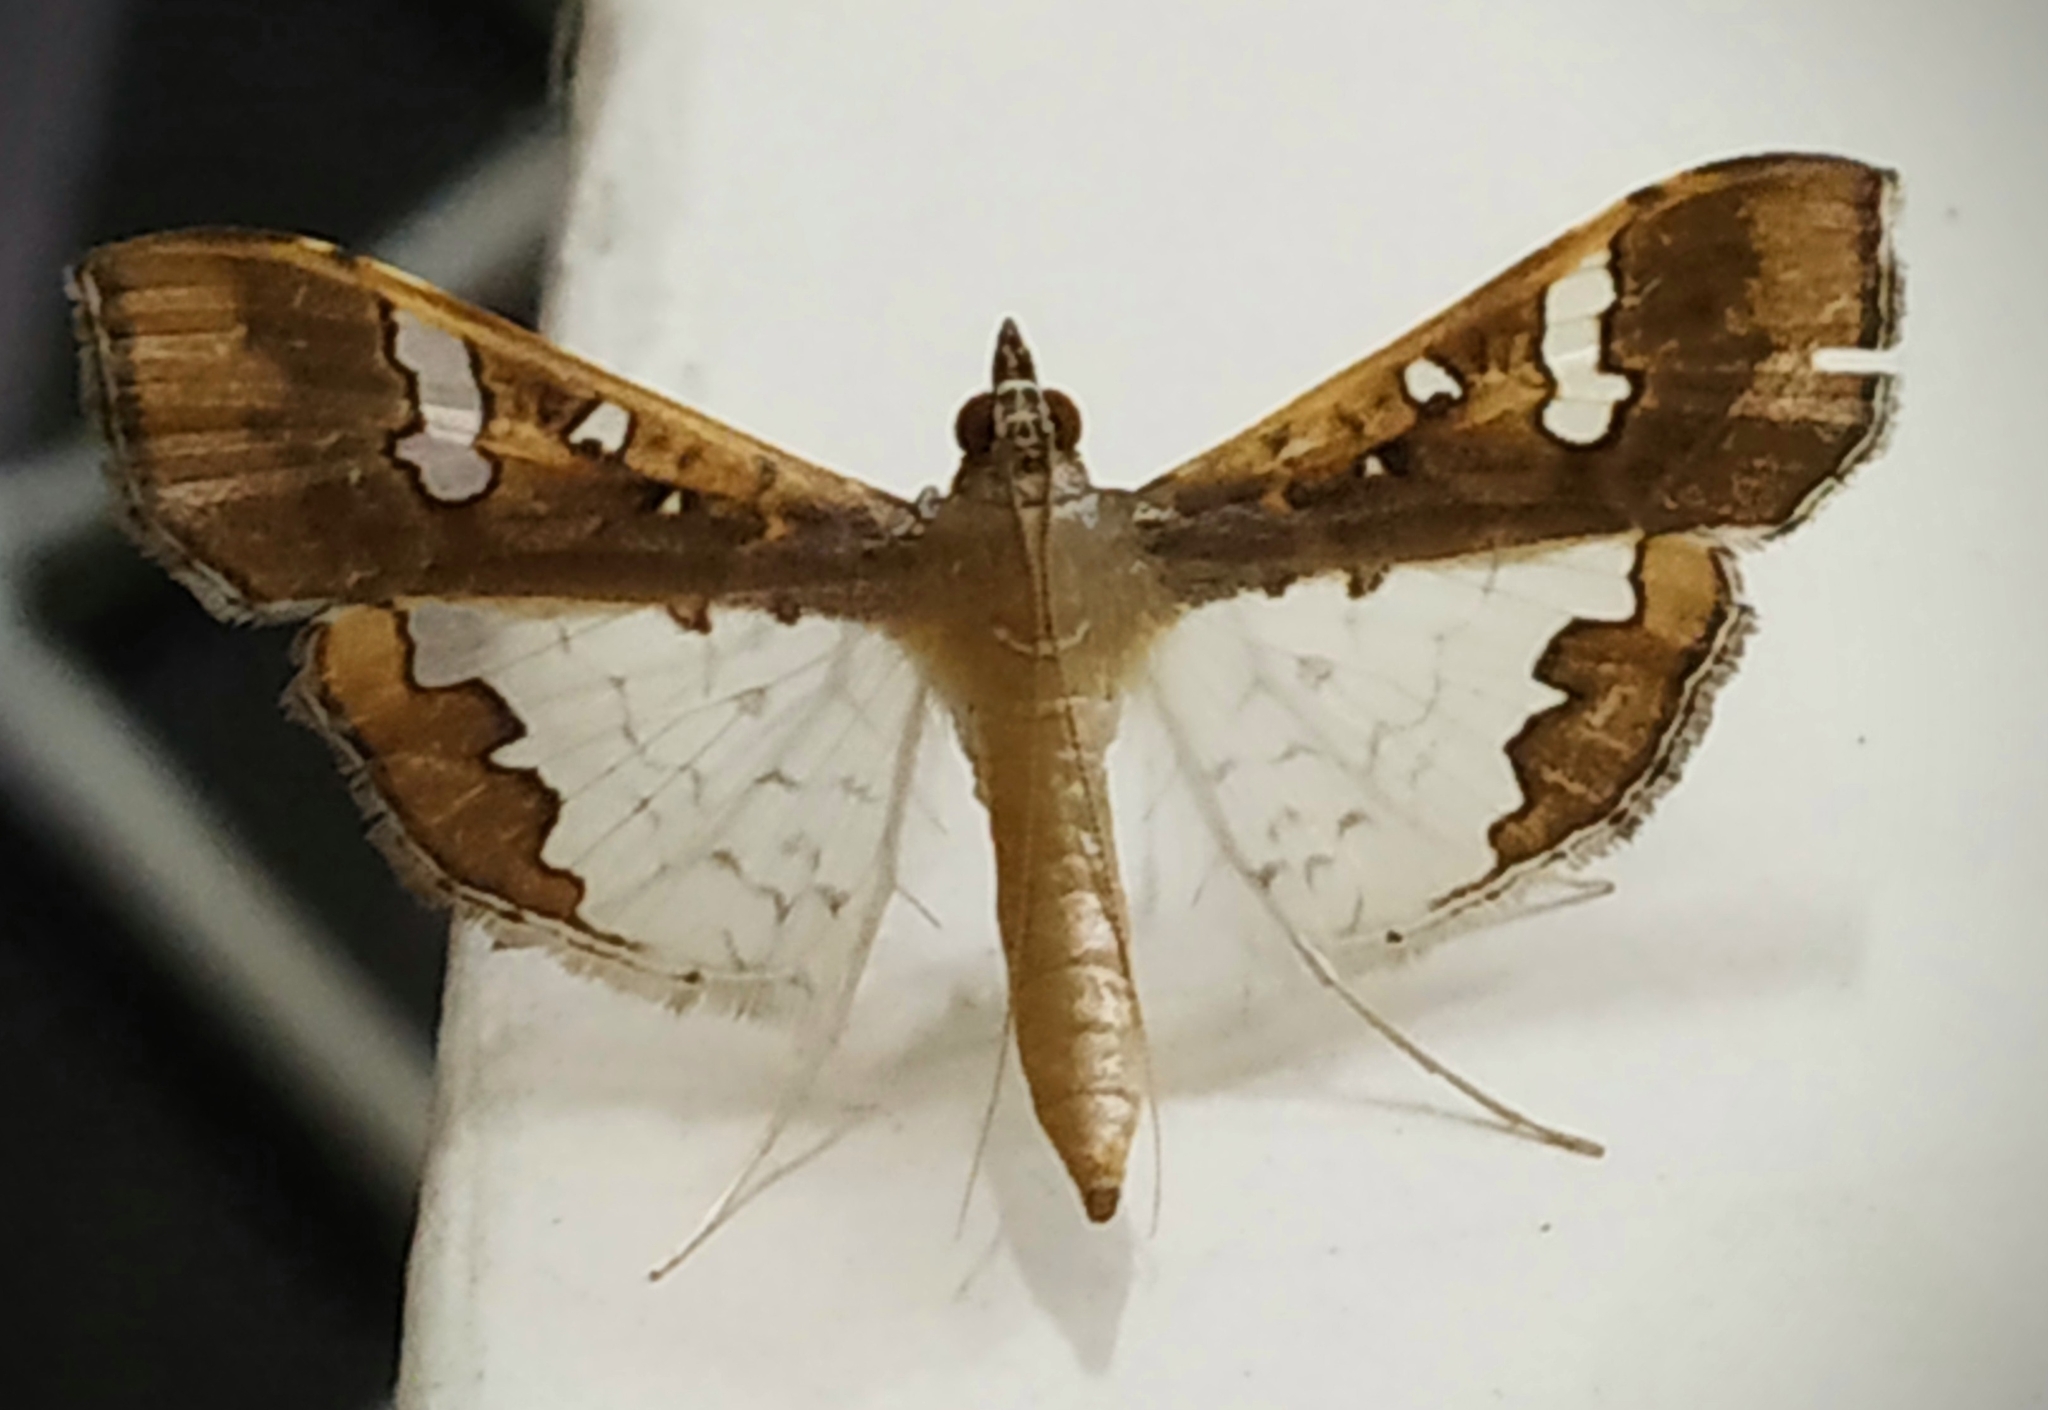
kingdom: Animalia
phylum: Arthropoda
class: Insecta
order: Lepidoptera
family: Crambidae
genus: Maruca
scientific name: Maruca vitrata
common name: Maruca pod borer
